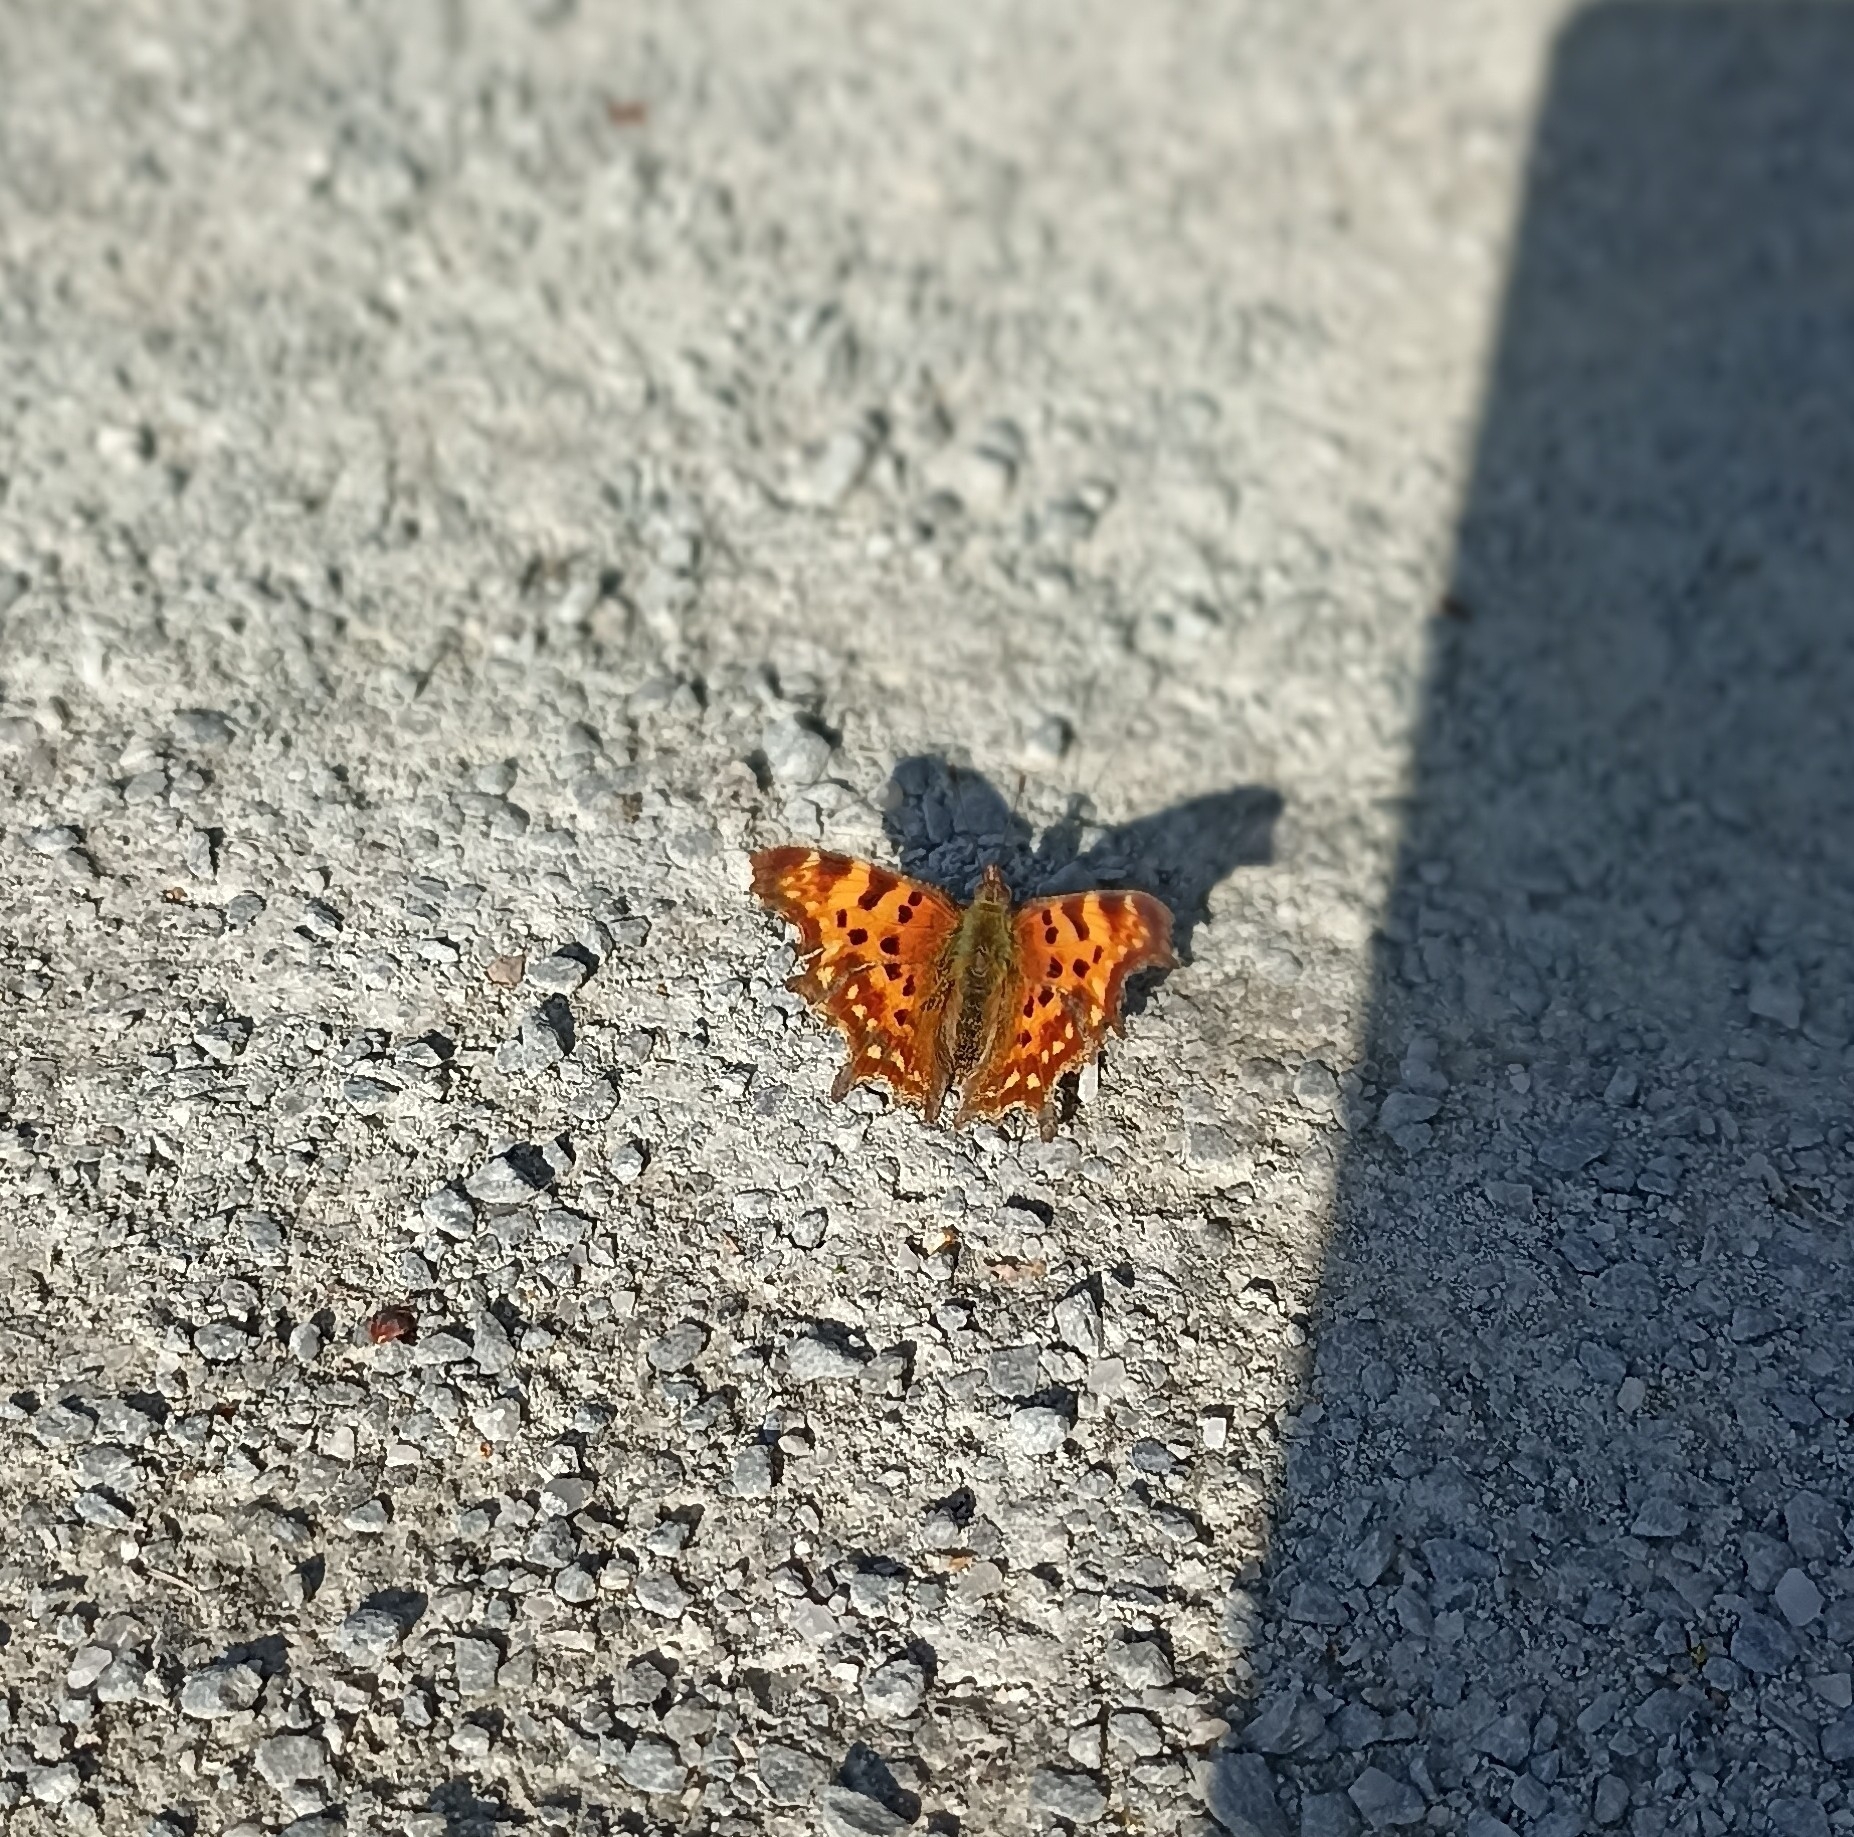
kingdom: Animalia
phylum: Arthropoda
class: Insecta
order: Lepidoptera
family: Nymphalidae
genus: Polygonia
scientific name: Polygonia c-album
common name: Comma
